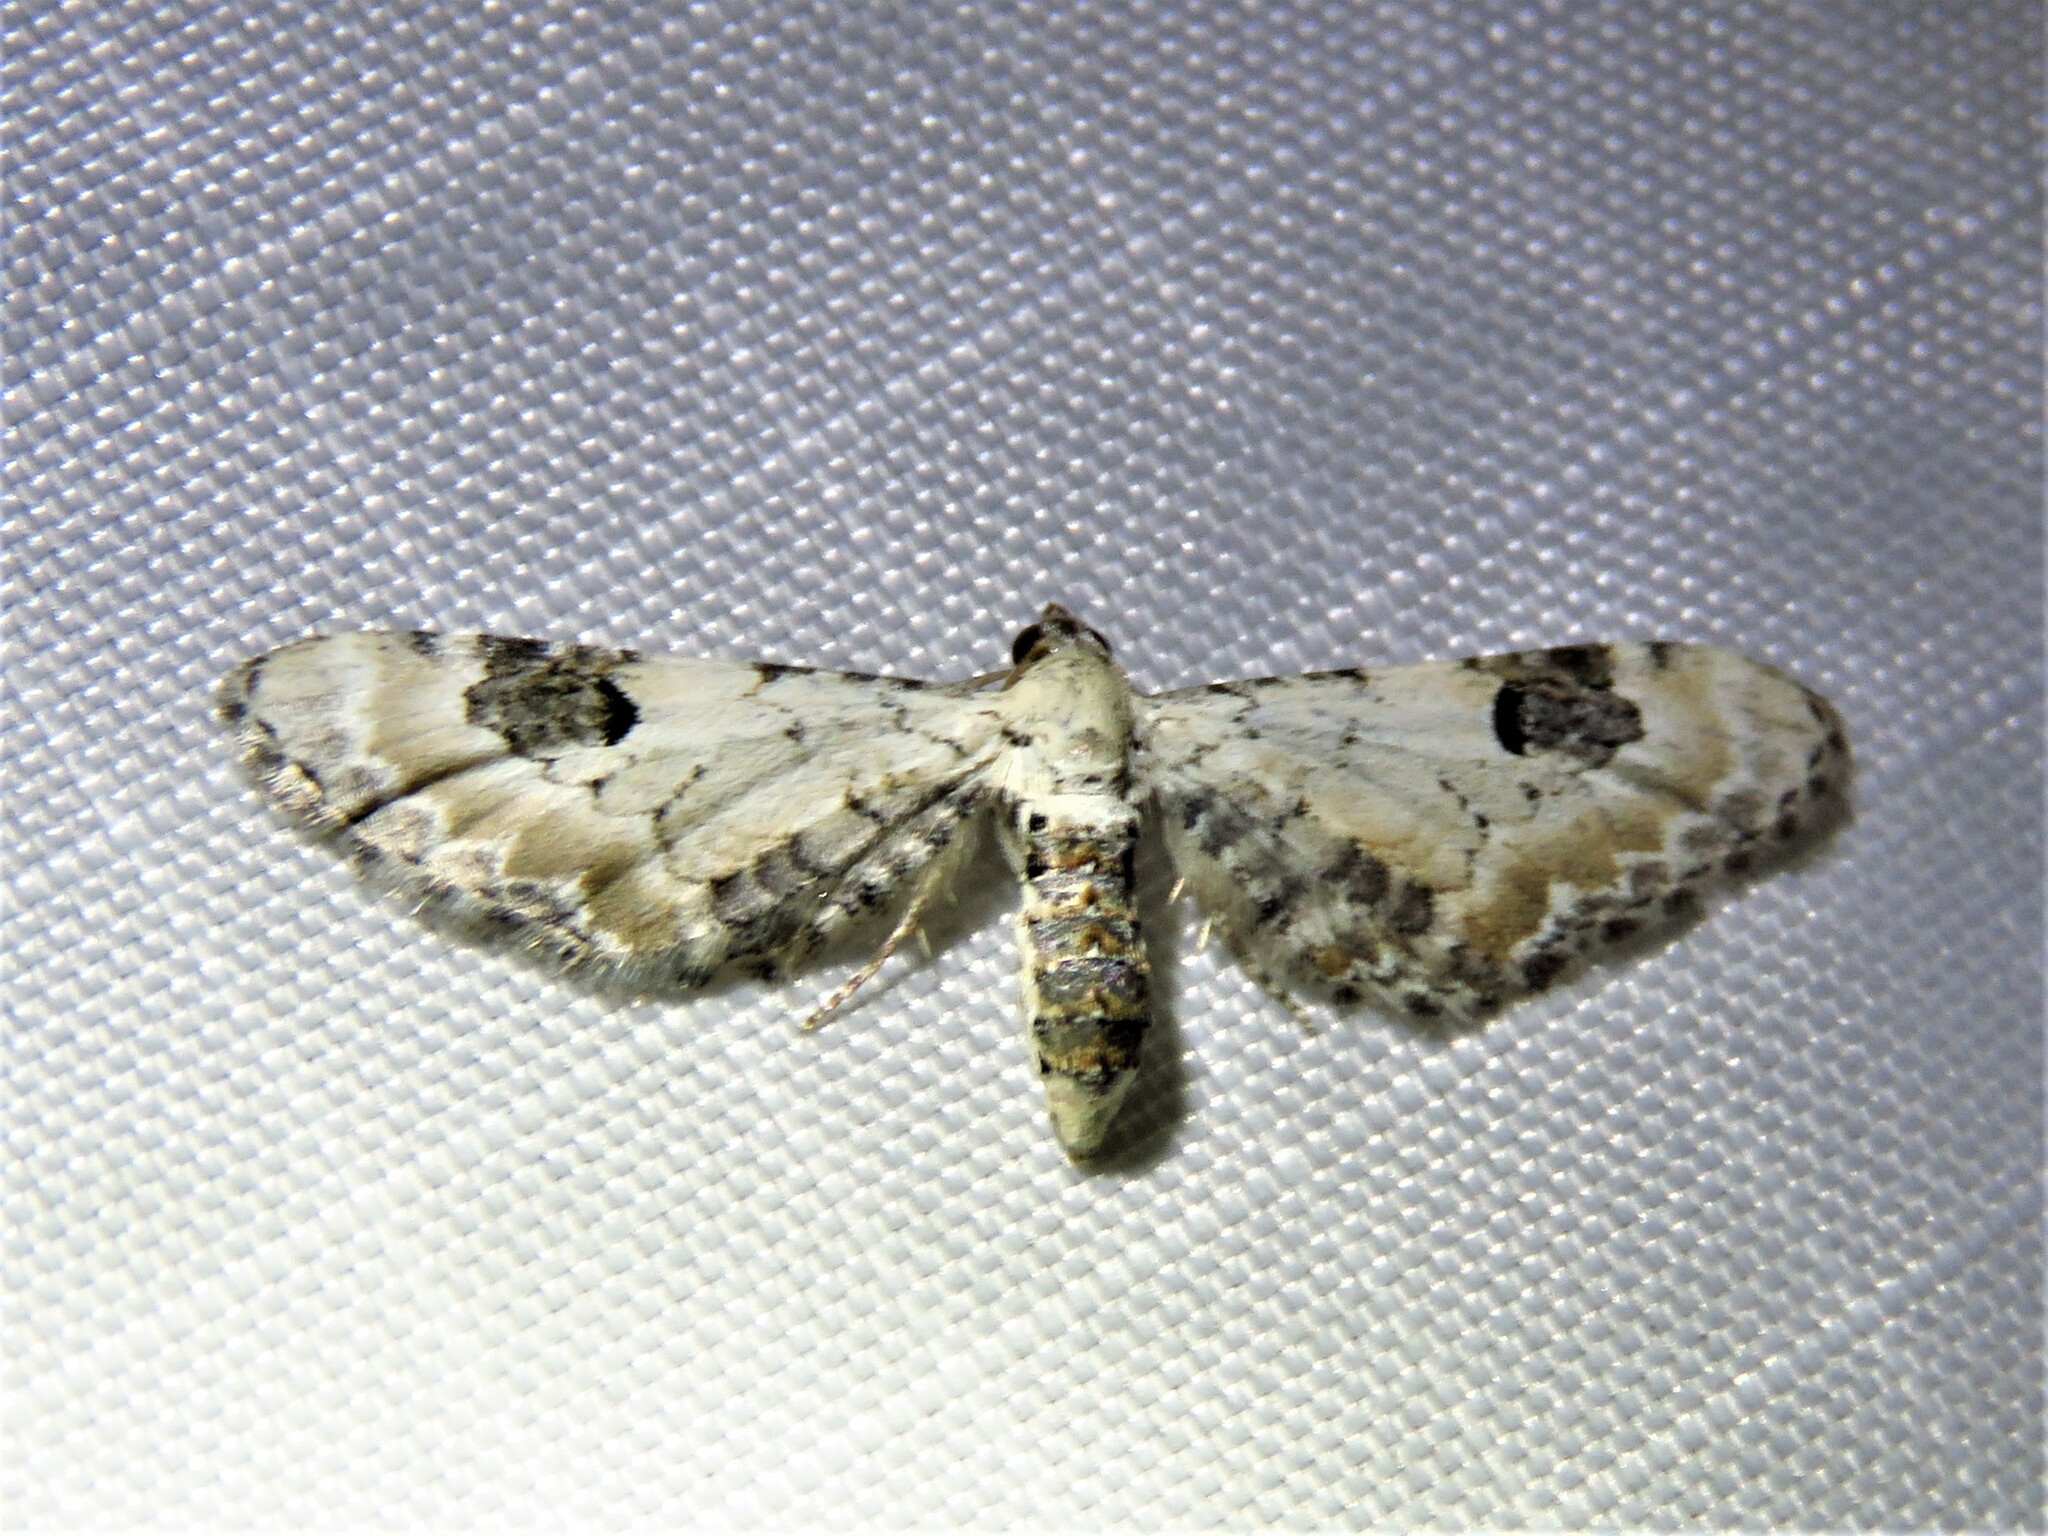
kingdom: Animalia
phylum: Arthropoda
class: Insecta
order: Lepidoptera
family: Geometridae
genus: Eupithecia
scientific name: Eupithecia centaureata
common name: Lime-speck pug
